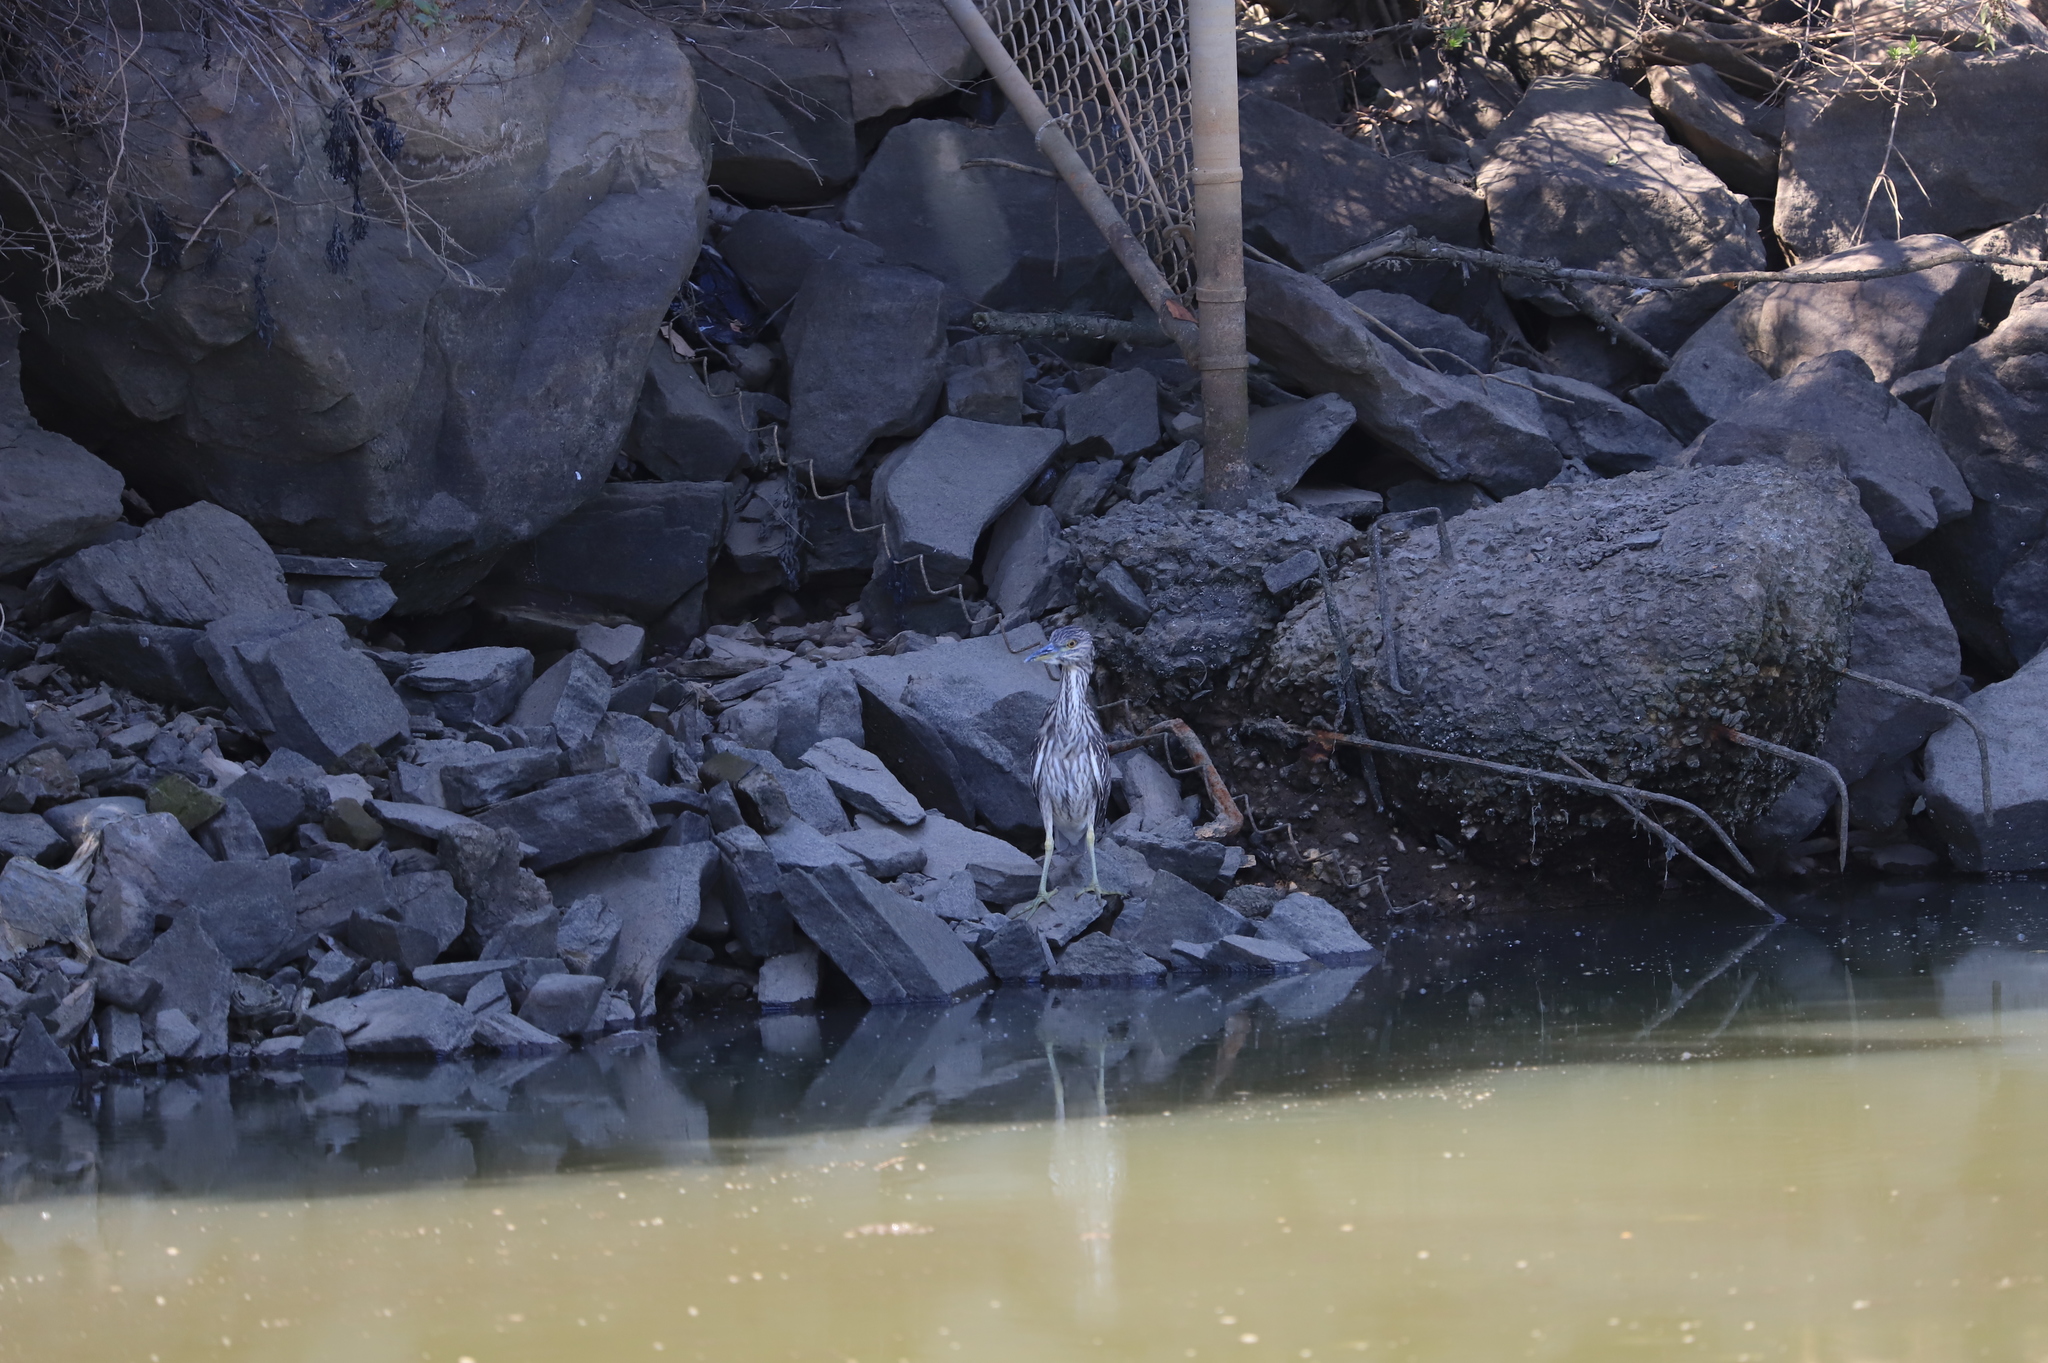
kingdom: Animalia
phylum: Chordata
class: Aves
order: Pelecaniformes
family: Ardeidae
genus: Nyctanassa
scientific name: Nyctanassa violacea
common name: Yellow-crowned night heron
